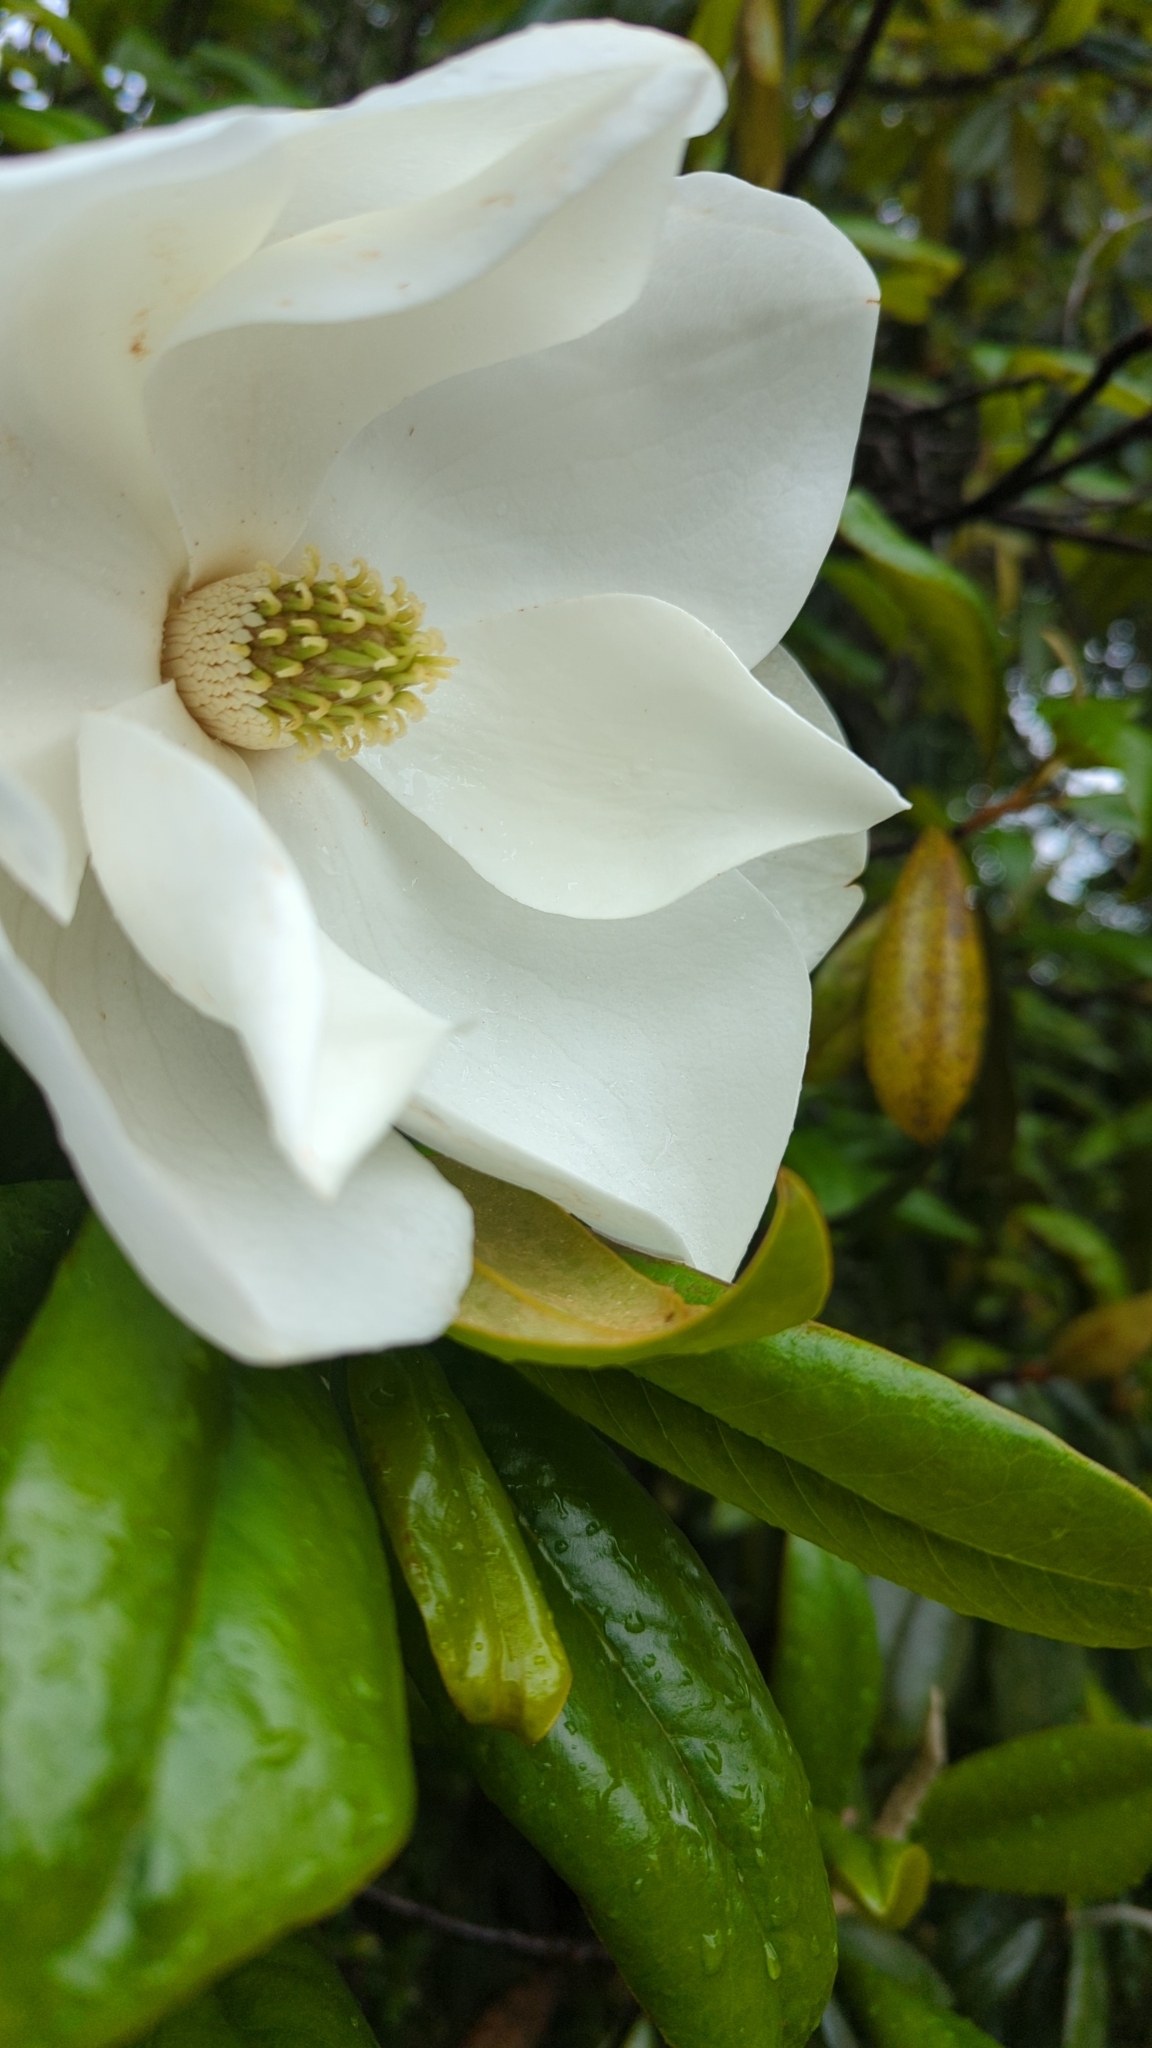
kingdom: Plantae
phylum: Tracheophyta
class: Magnoliopsida
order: Magnoliales
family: Magnoliaceae
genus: Magnolia
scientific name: Magnolia grandiflora
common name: Southern magnolia
